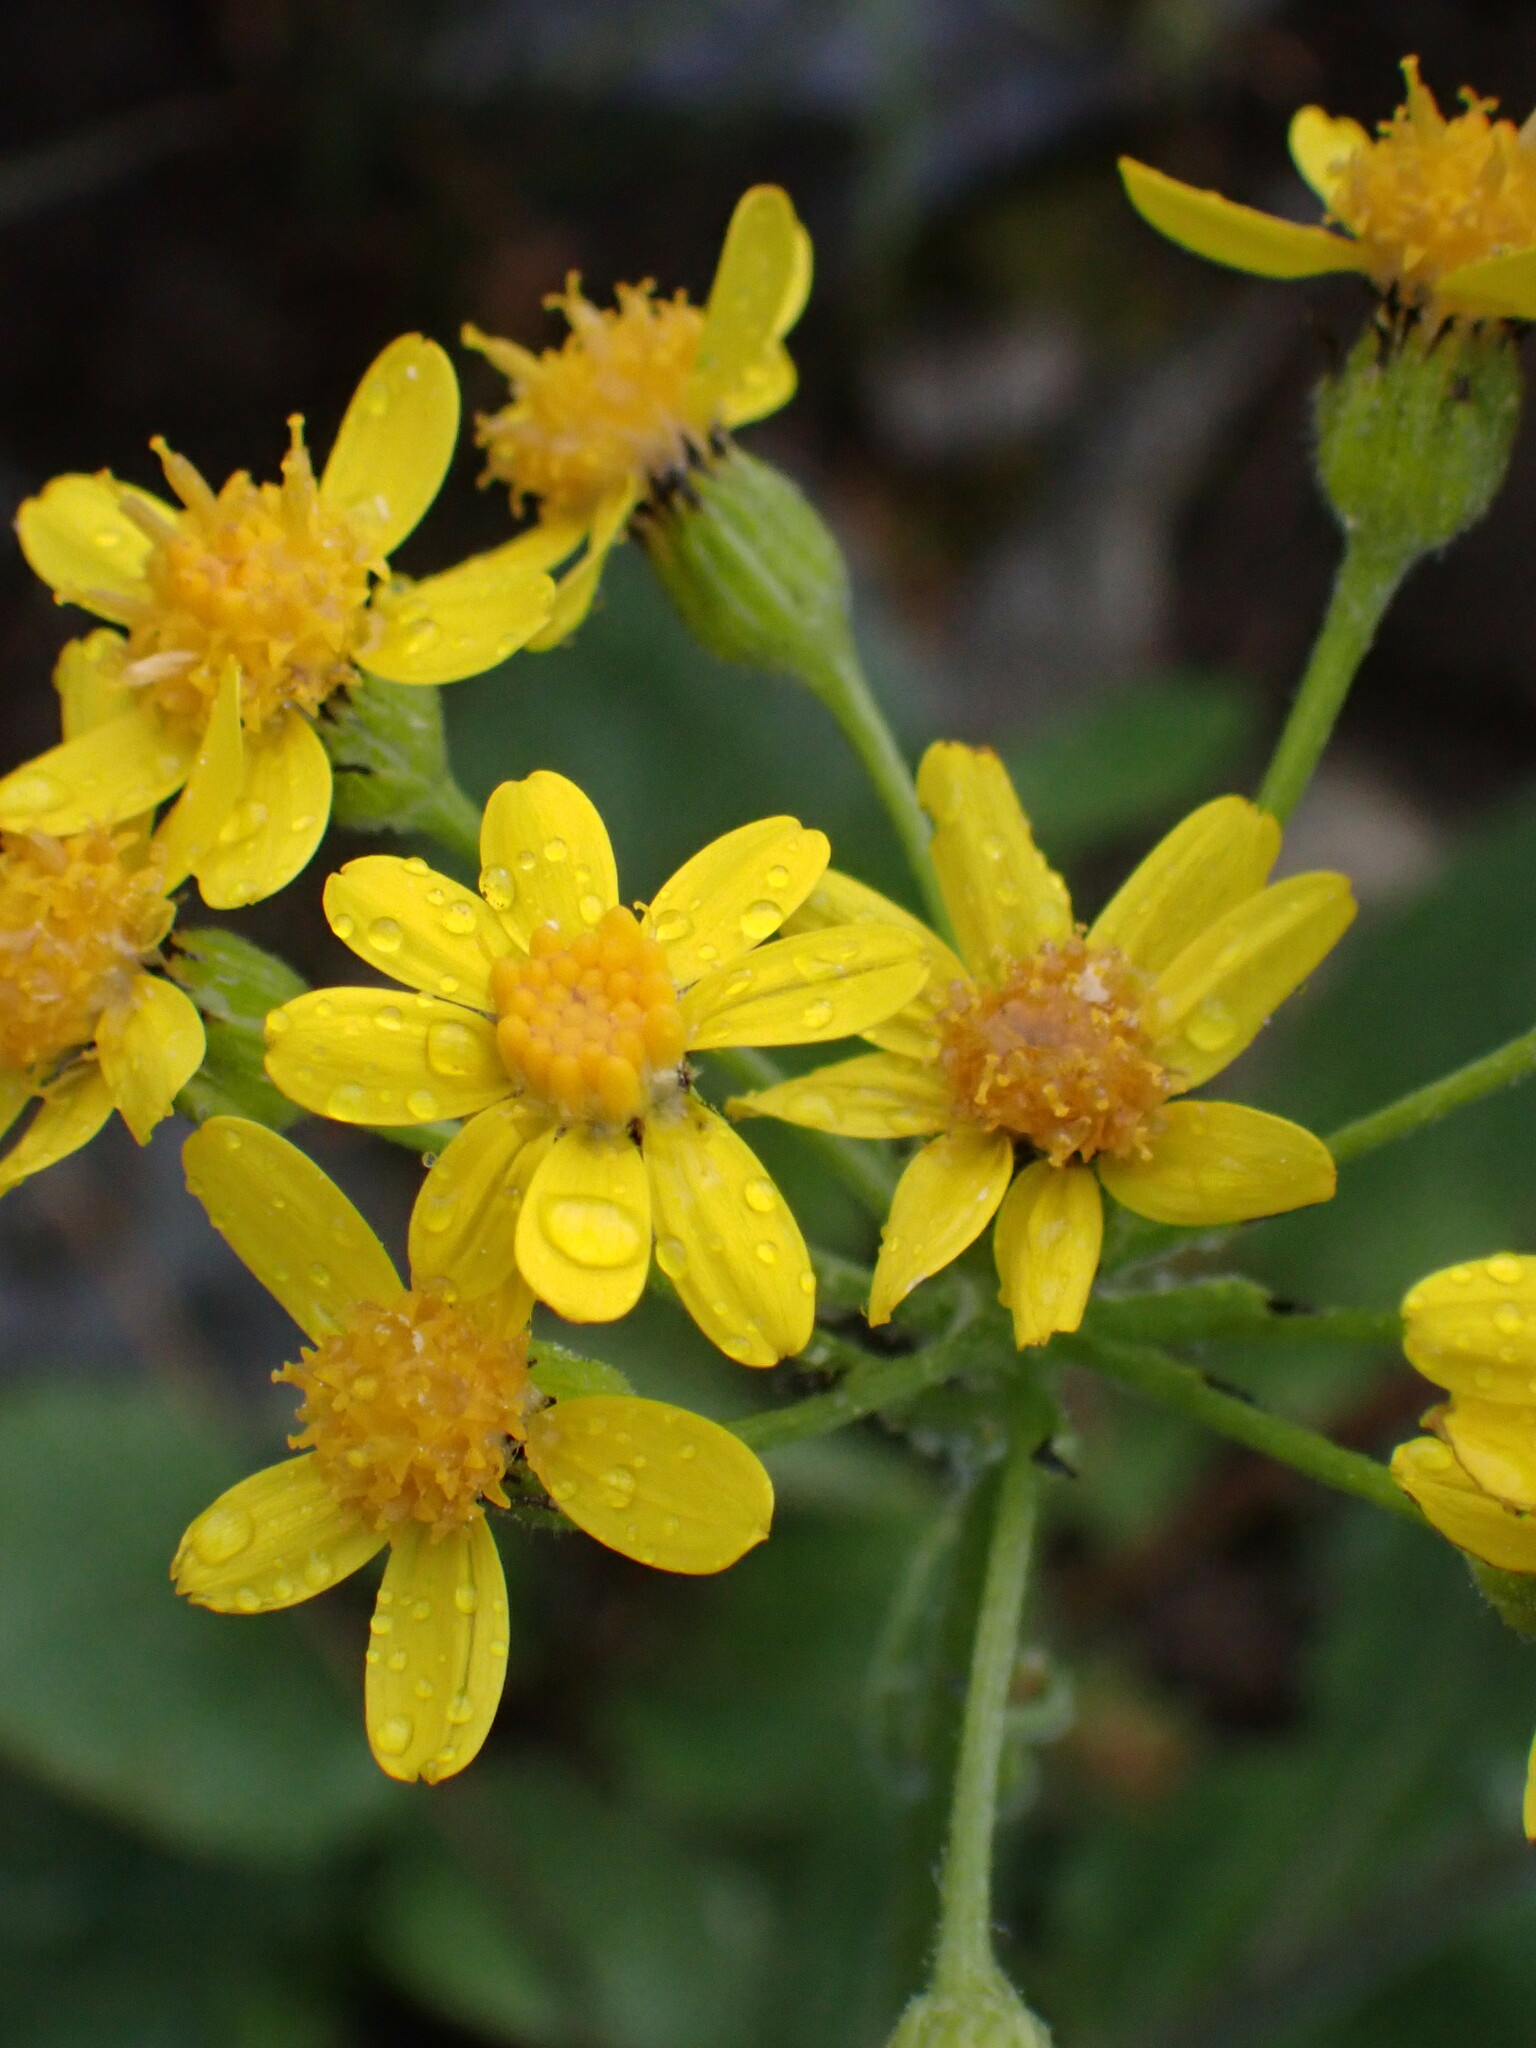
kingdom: Plantae
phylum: Tracheophyta
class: Magnoliopsida
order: Asterales
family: Asteraceae
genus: Senecio
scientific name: Senecio integerrimus
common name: Gaugeplant
